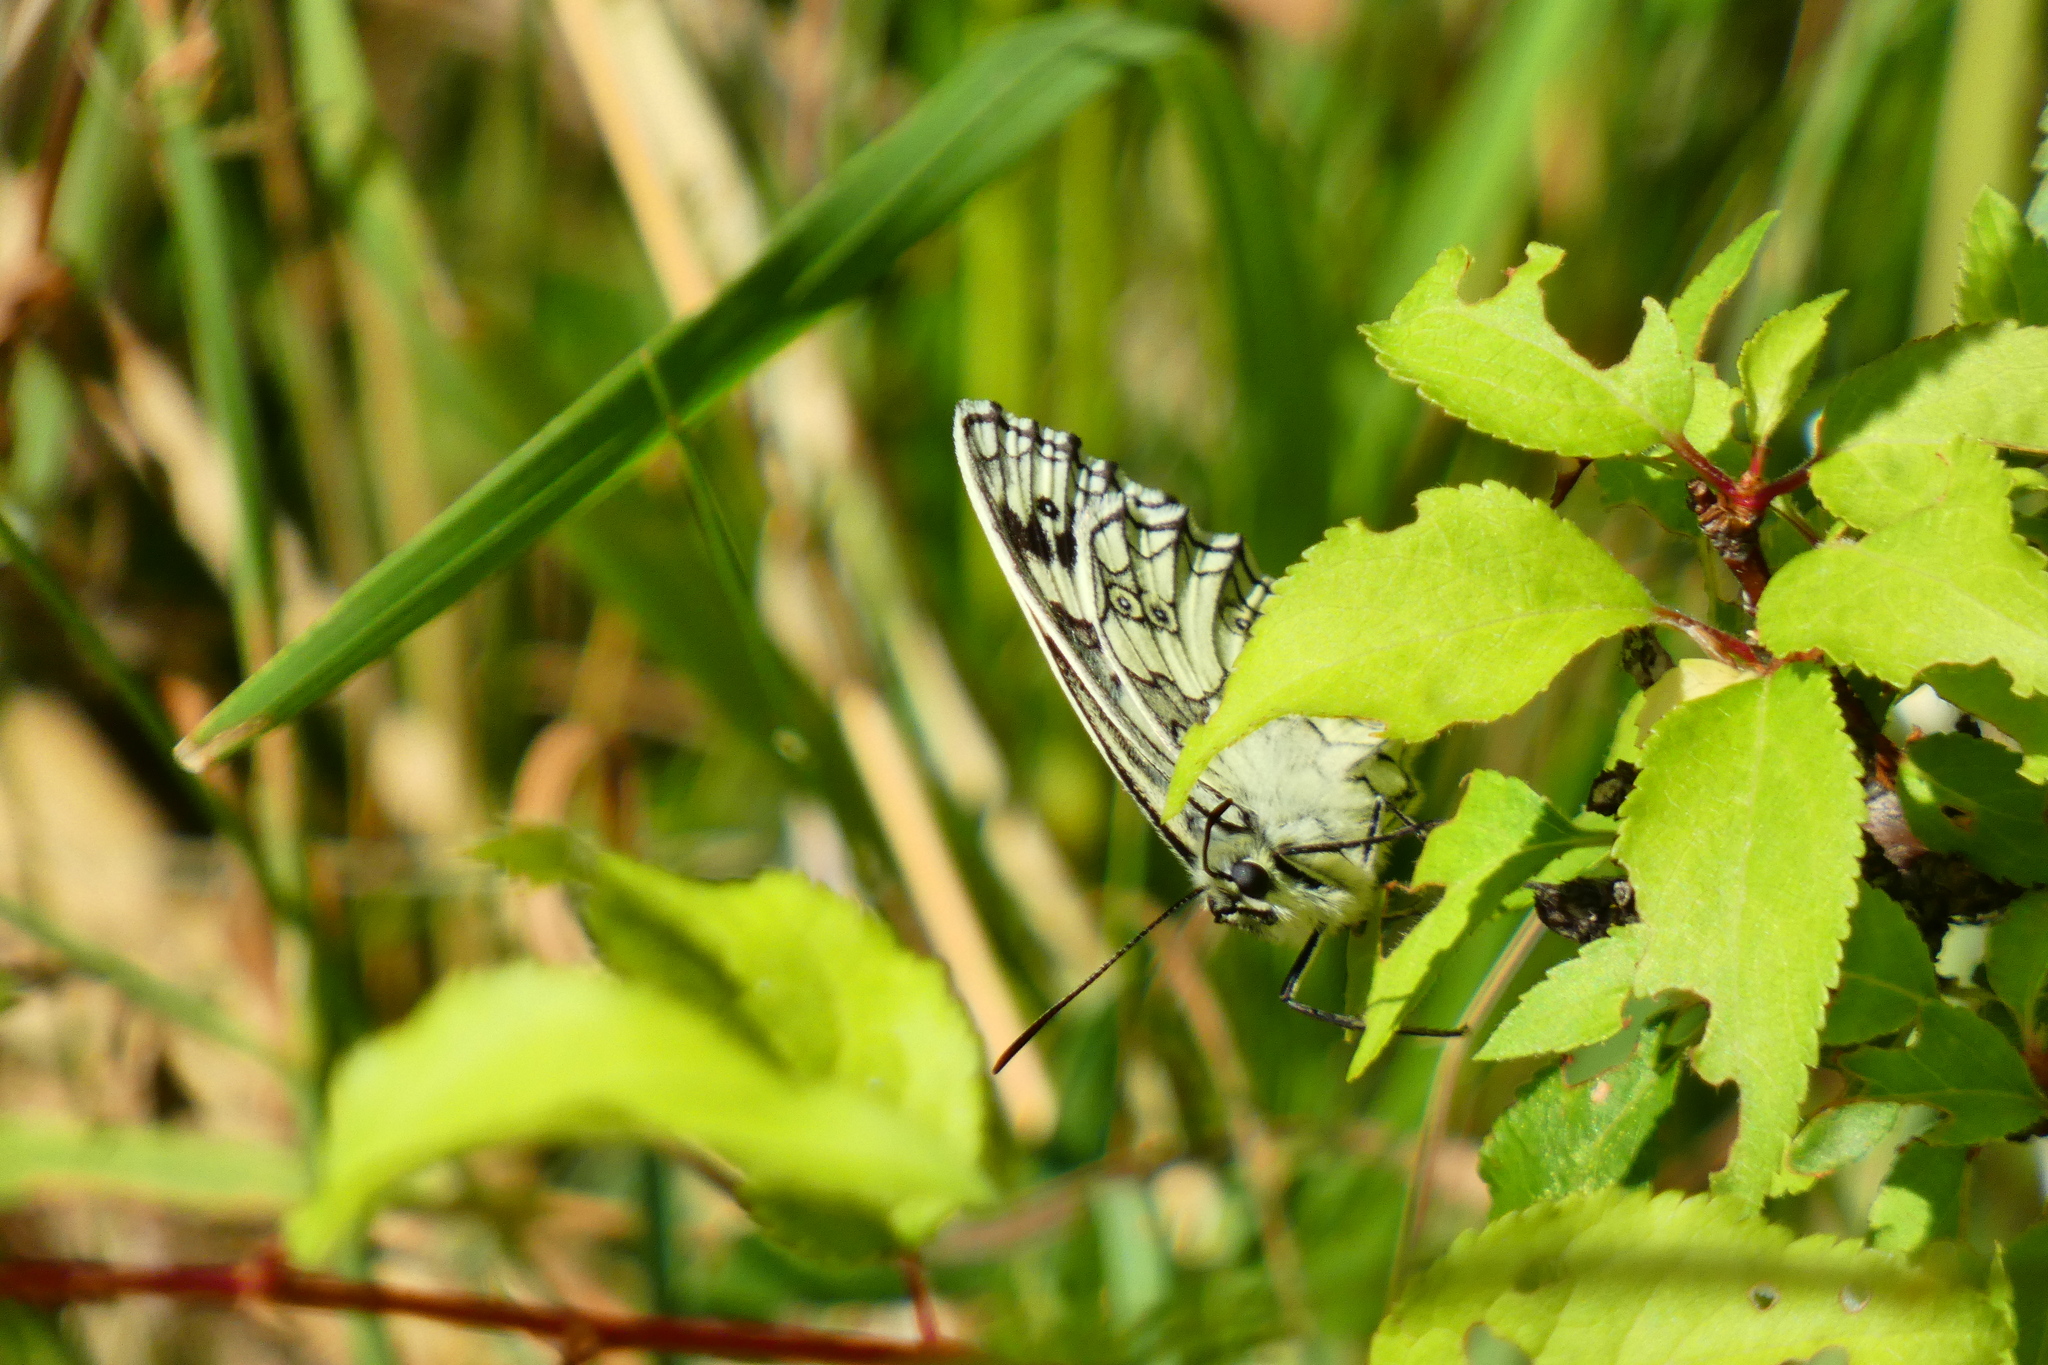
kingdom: Animalia
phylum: Arthropoda
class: Insecta
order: Lepidoptera
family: Nymphalidae
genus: Melanargia
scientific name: Melanargia galathea
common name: Marbled white
